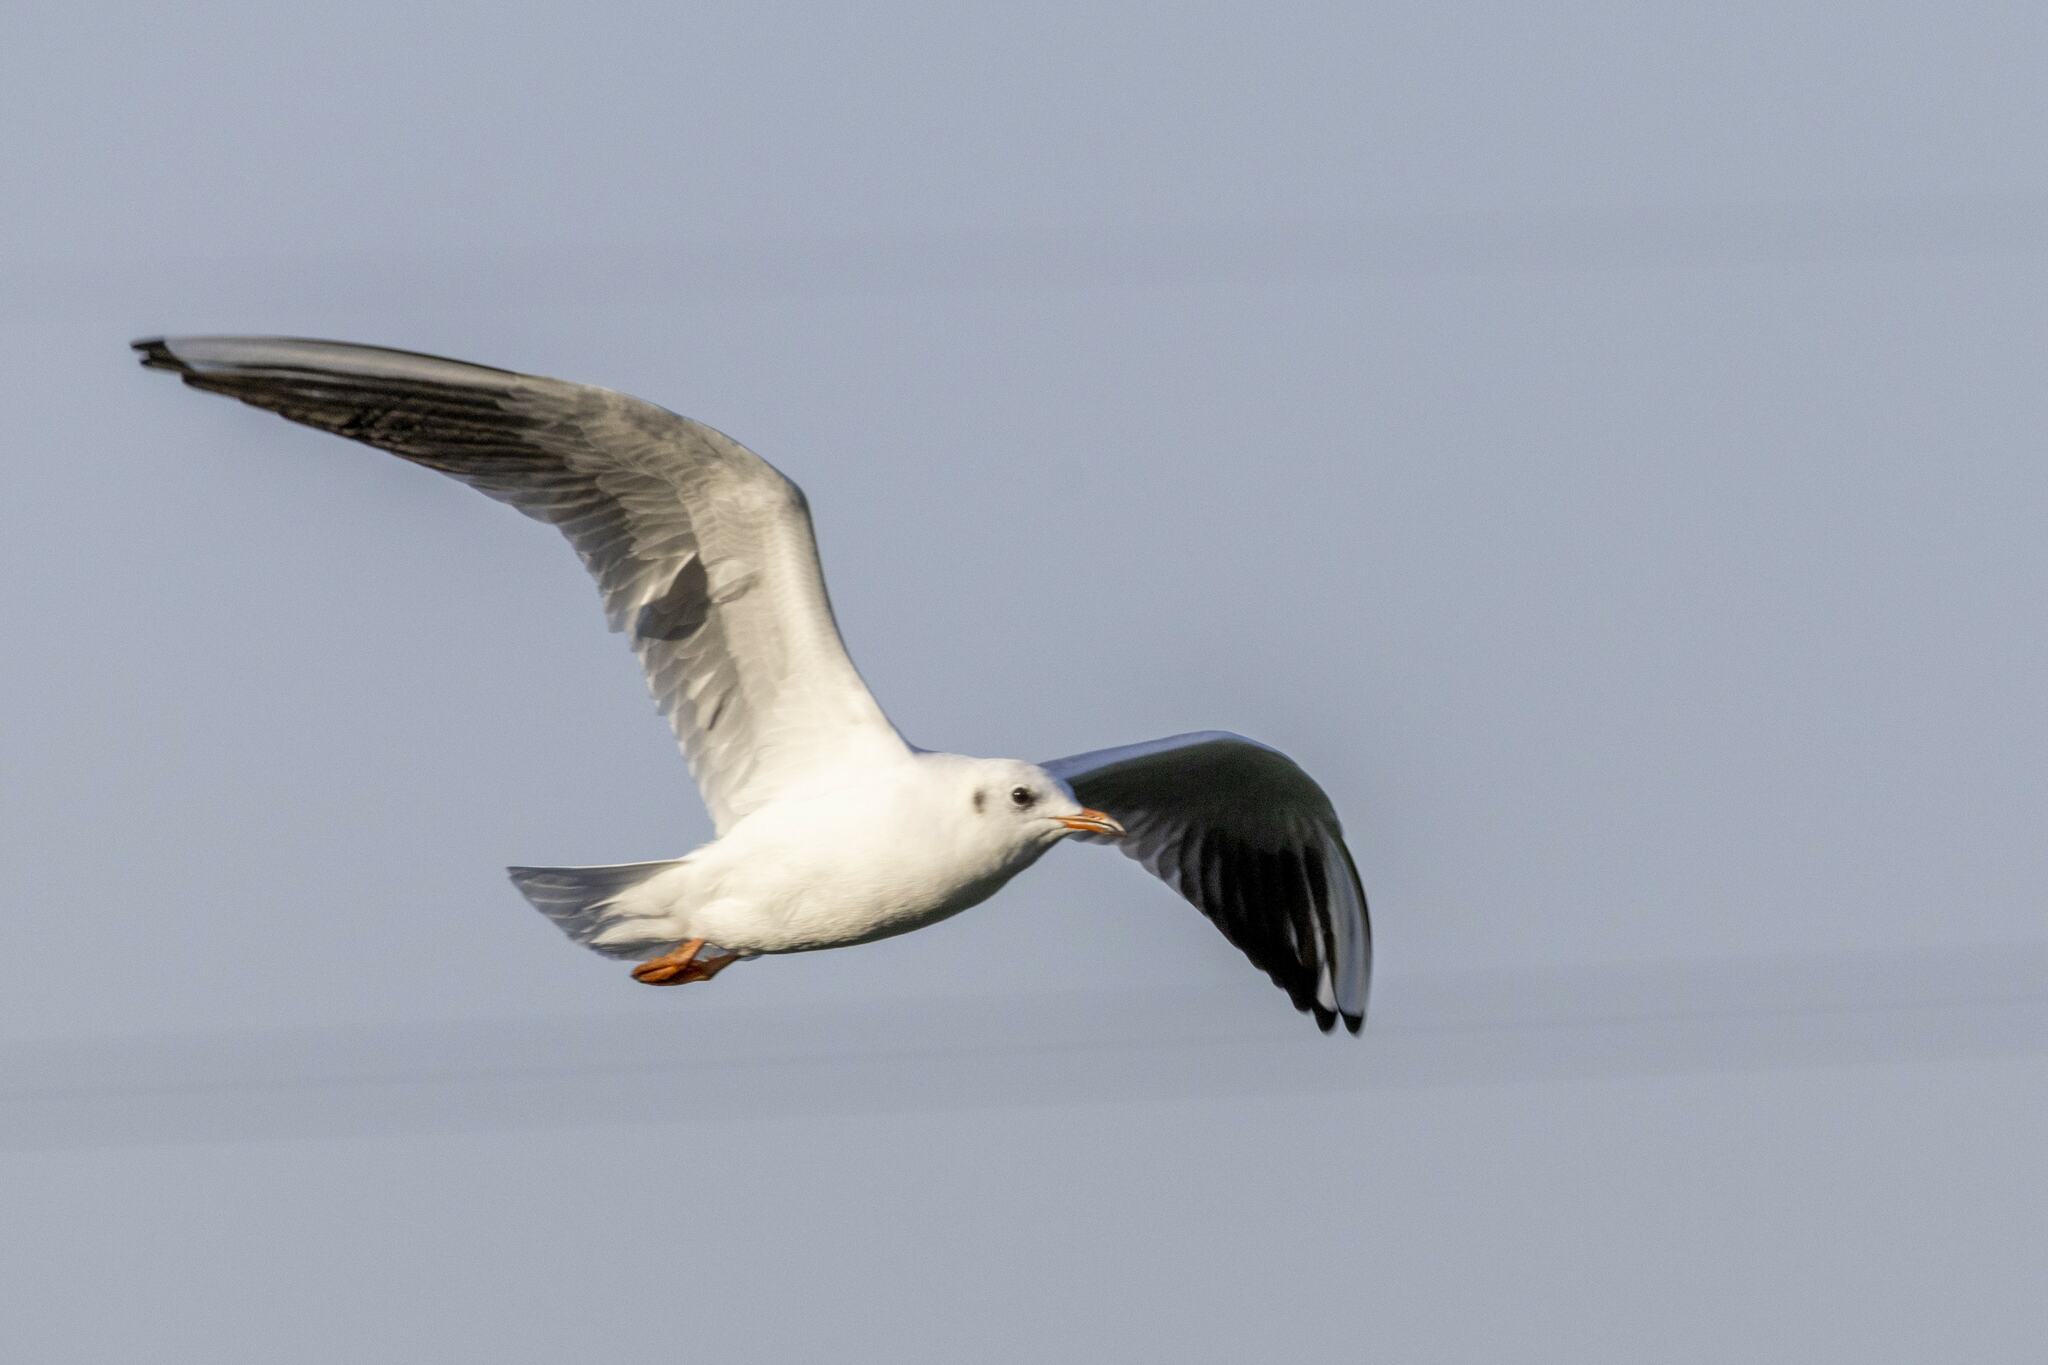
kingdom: Animalia
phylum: Chordata
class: Aves
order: Charadriiformes
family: Laridae
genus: Chroicocephalus
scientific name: Chroicocephalus ridibundus
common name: Black-headed gull
